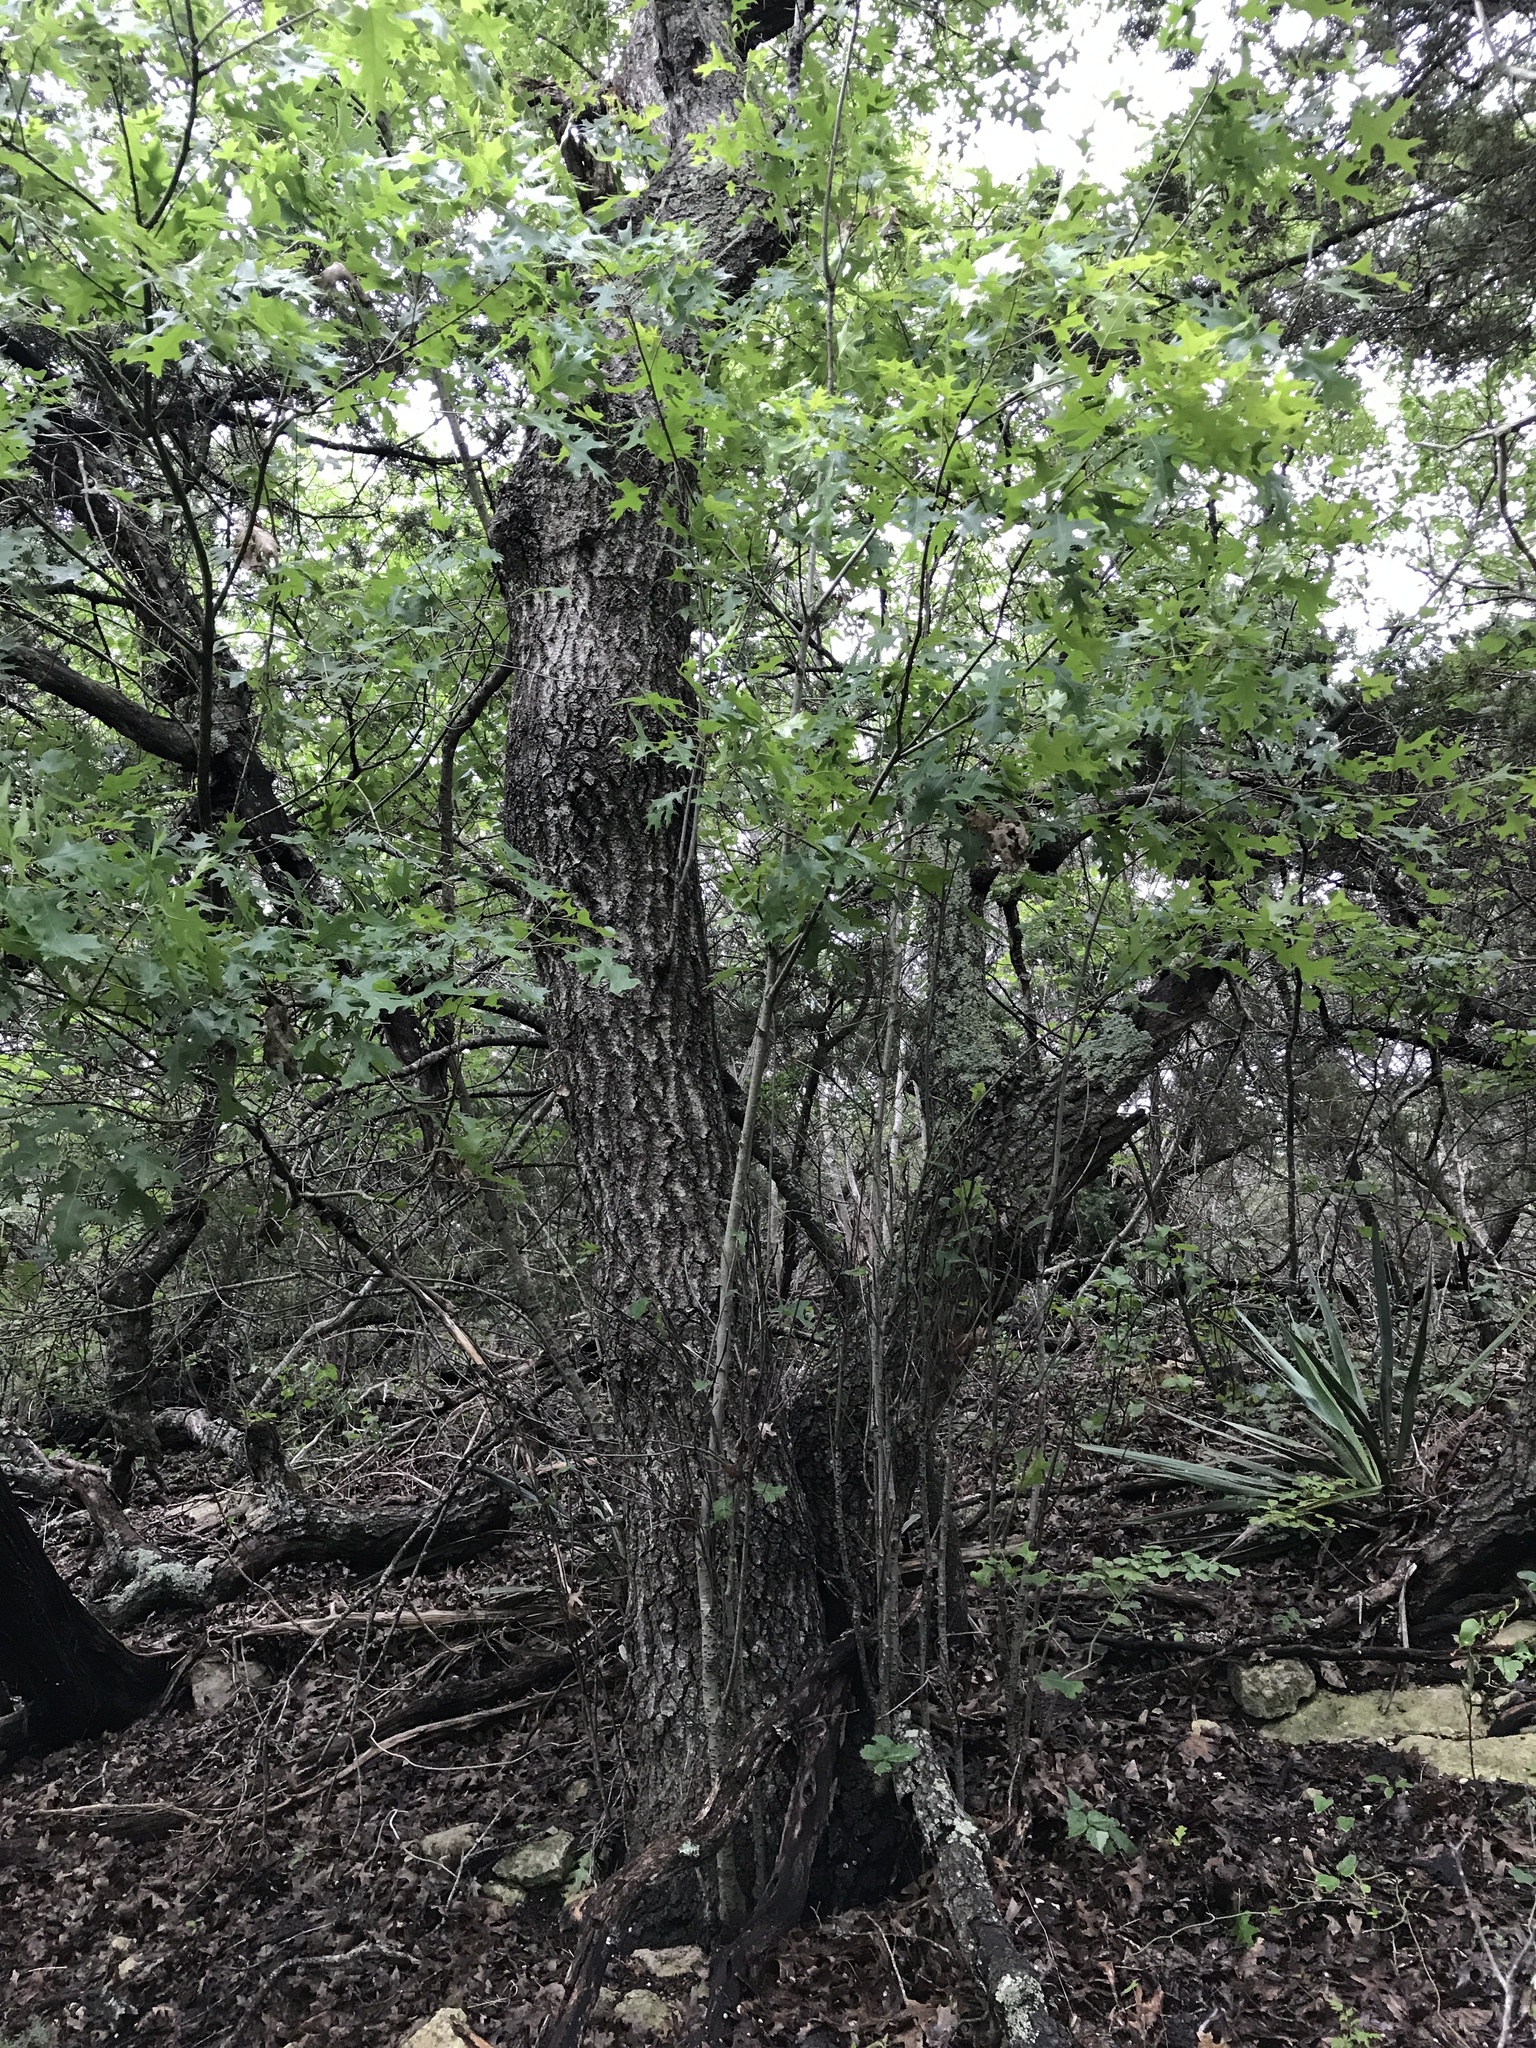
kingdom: Plantae
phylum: Tracheophyta
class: Magnoliopsida
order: Fagales
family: Fagaceae
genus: Quercus
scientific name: Quercus buckleyi
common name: Buckley oak
